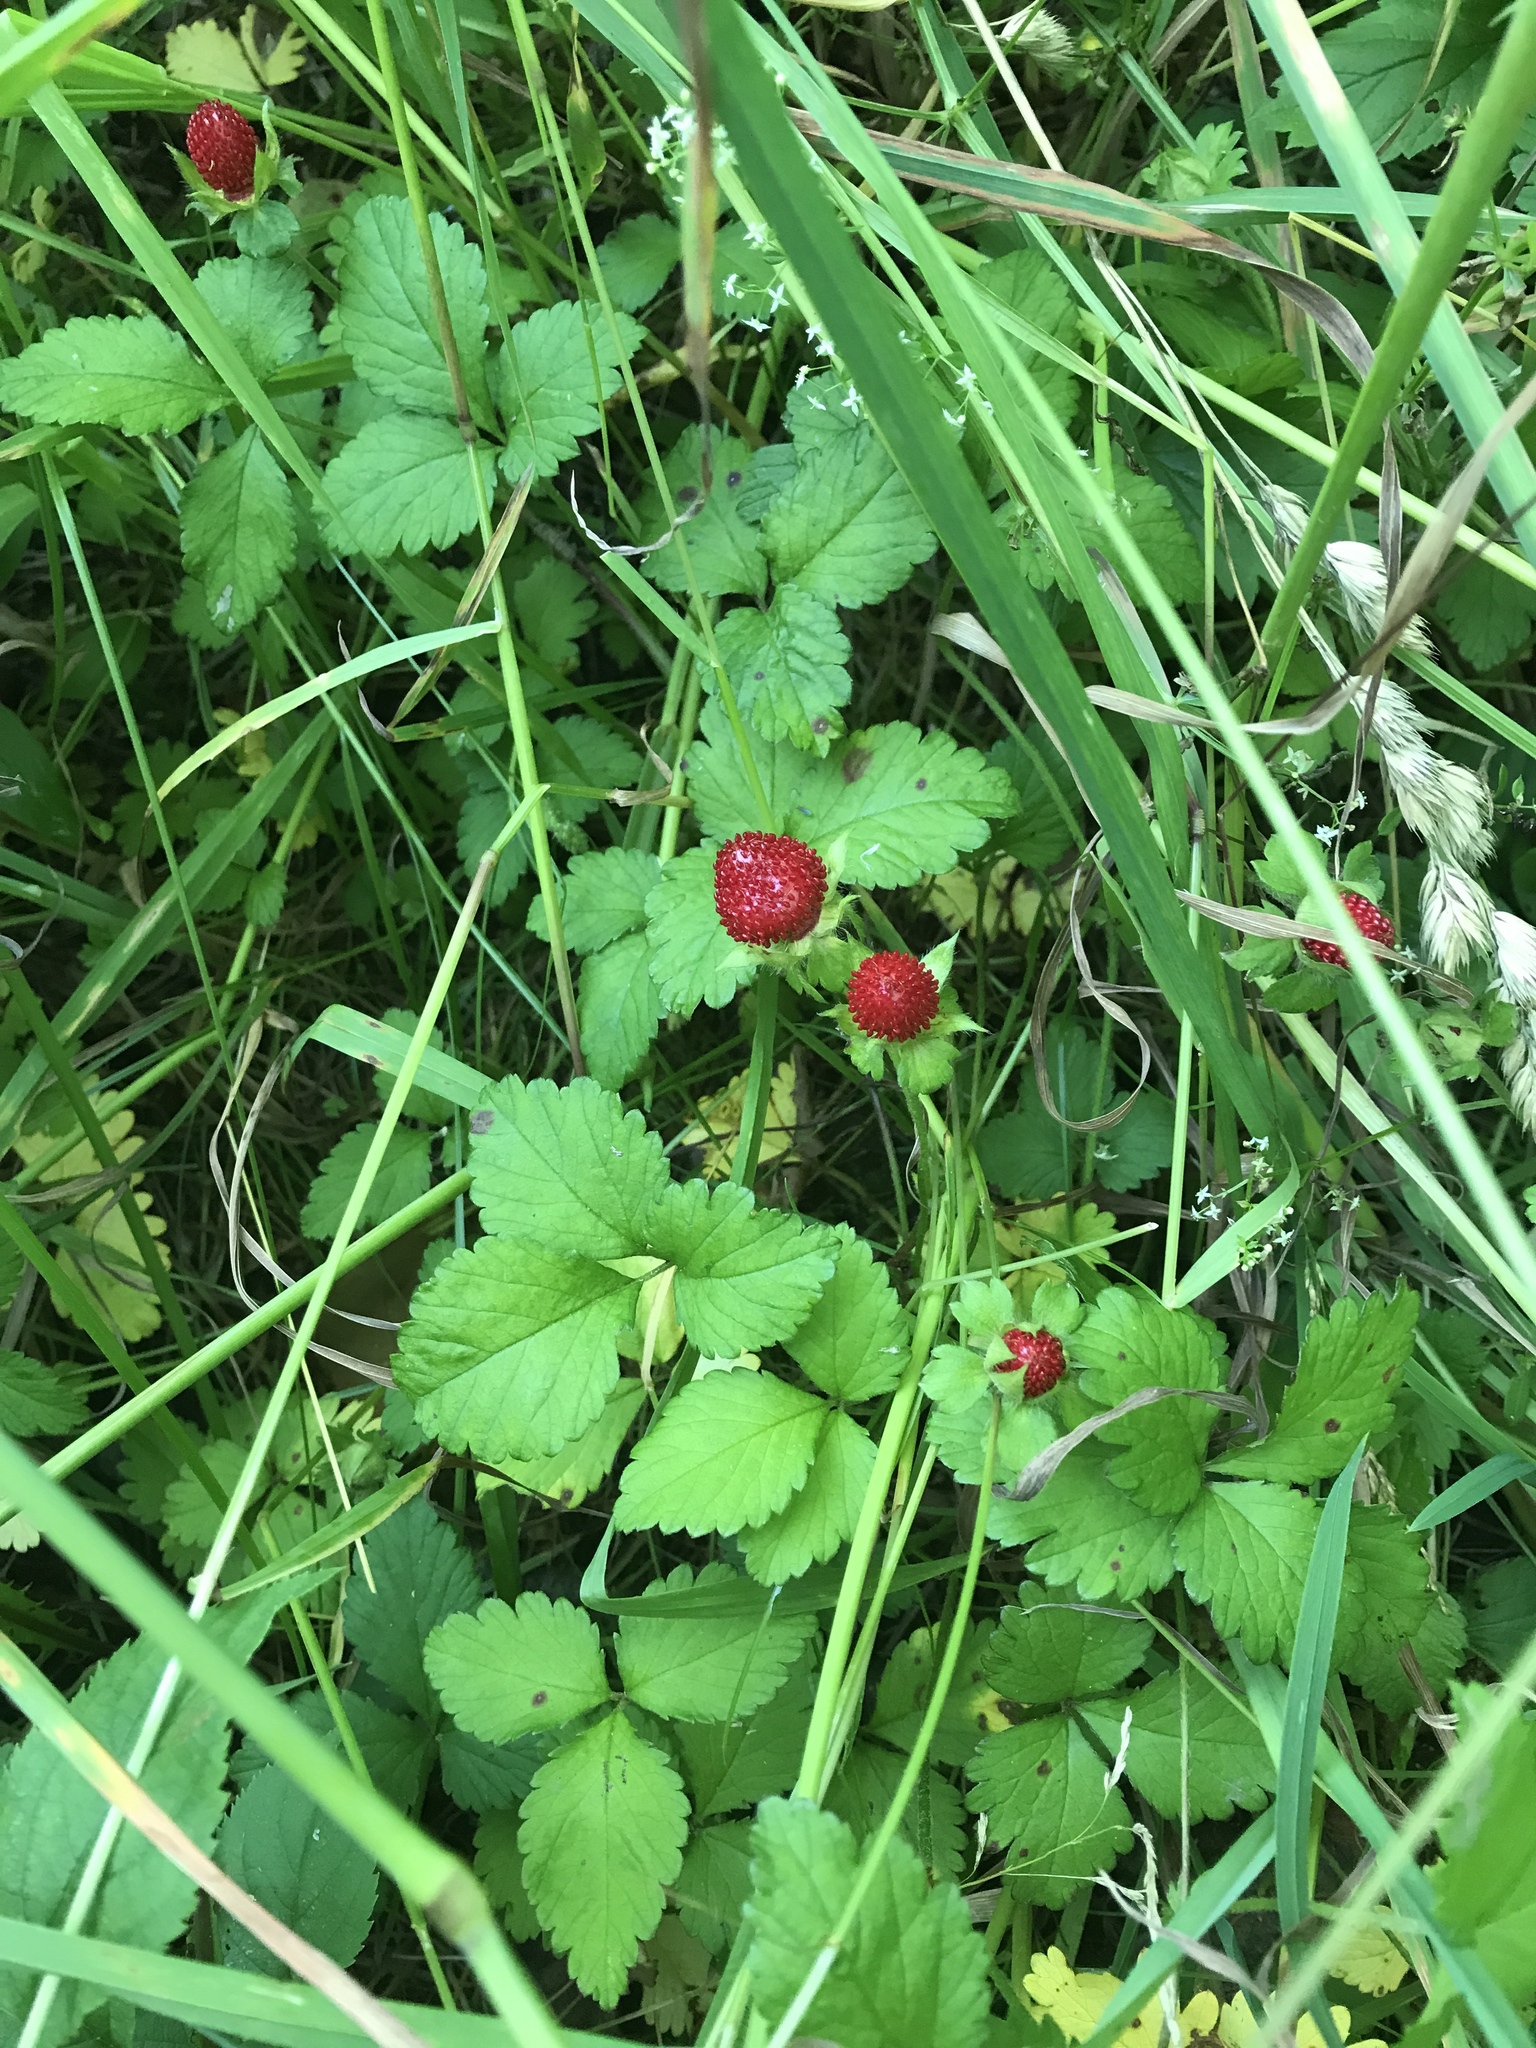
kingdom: Plantae
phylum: Tracheophyta
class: Magnoliopsida
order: Rosales
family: Rosaceae
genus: Potentilla
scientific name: Potentilla indica
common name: Yellow-flowered strawberry
